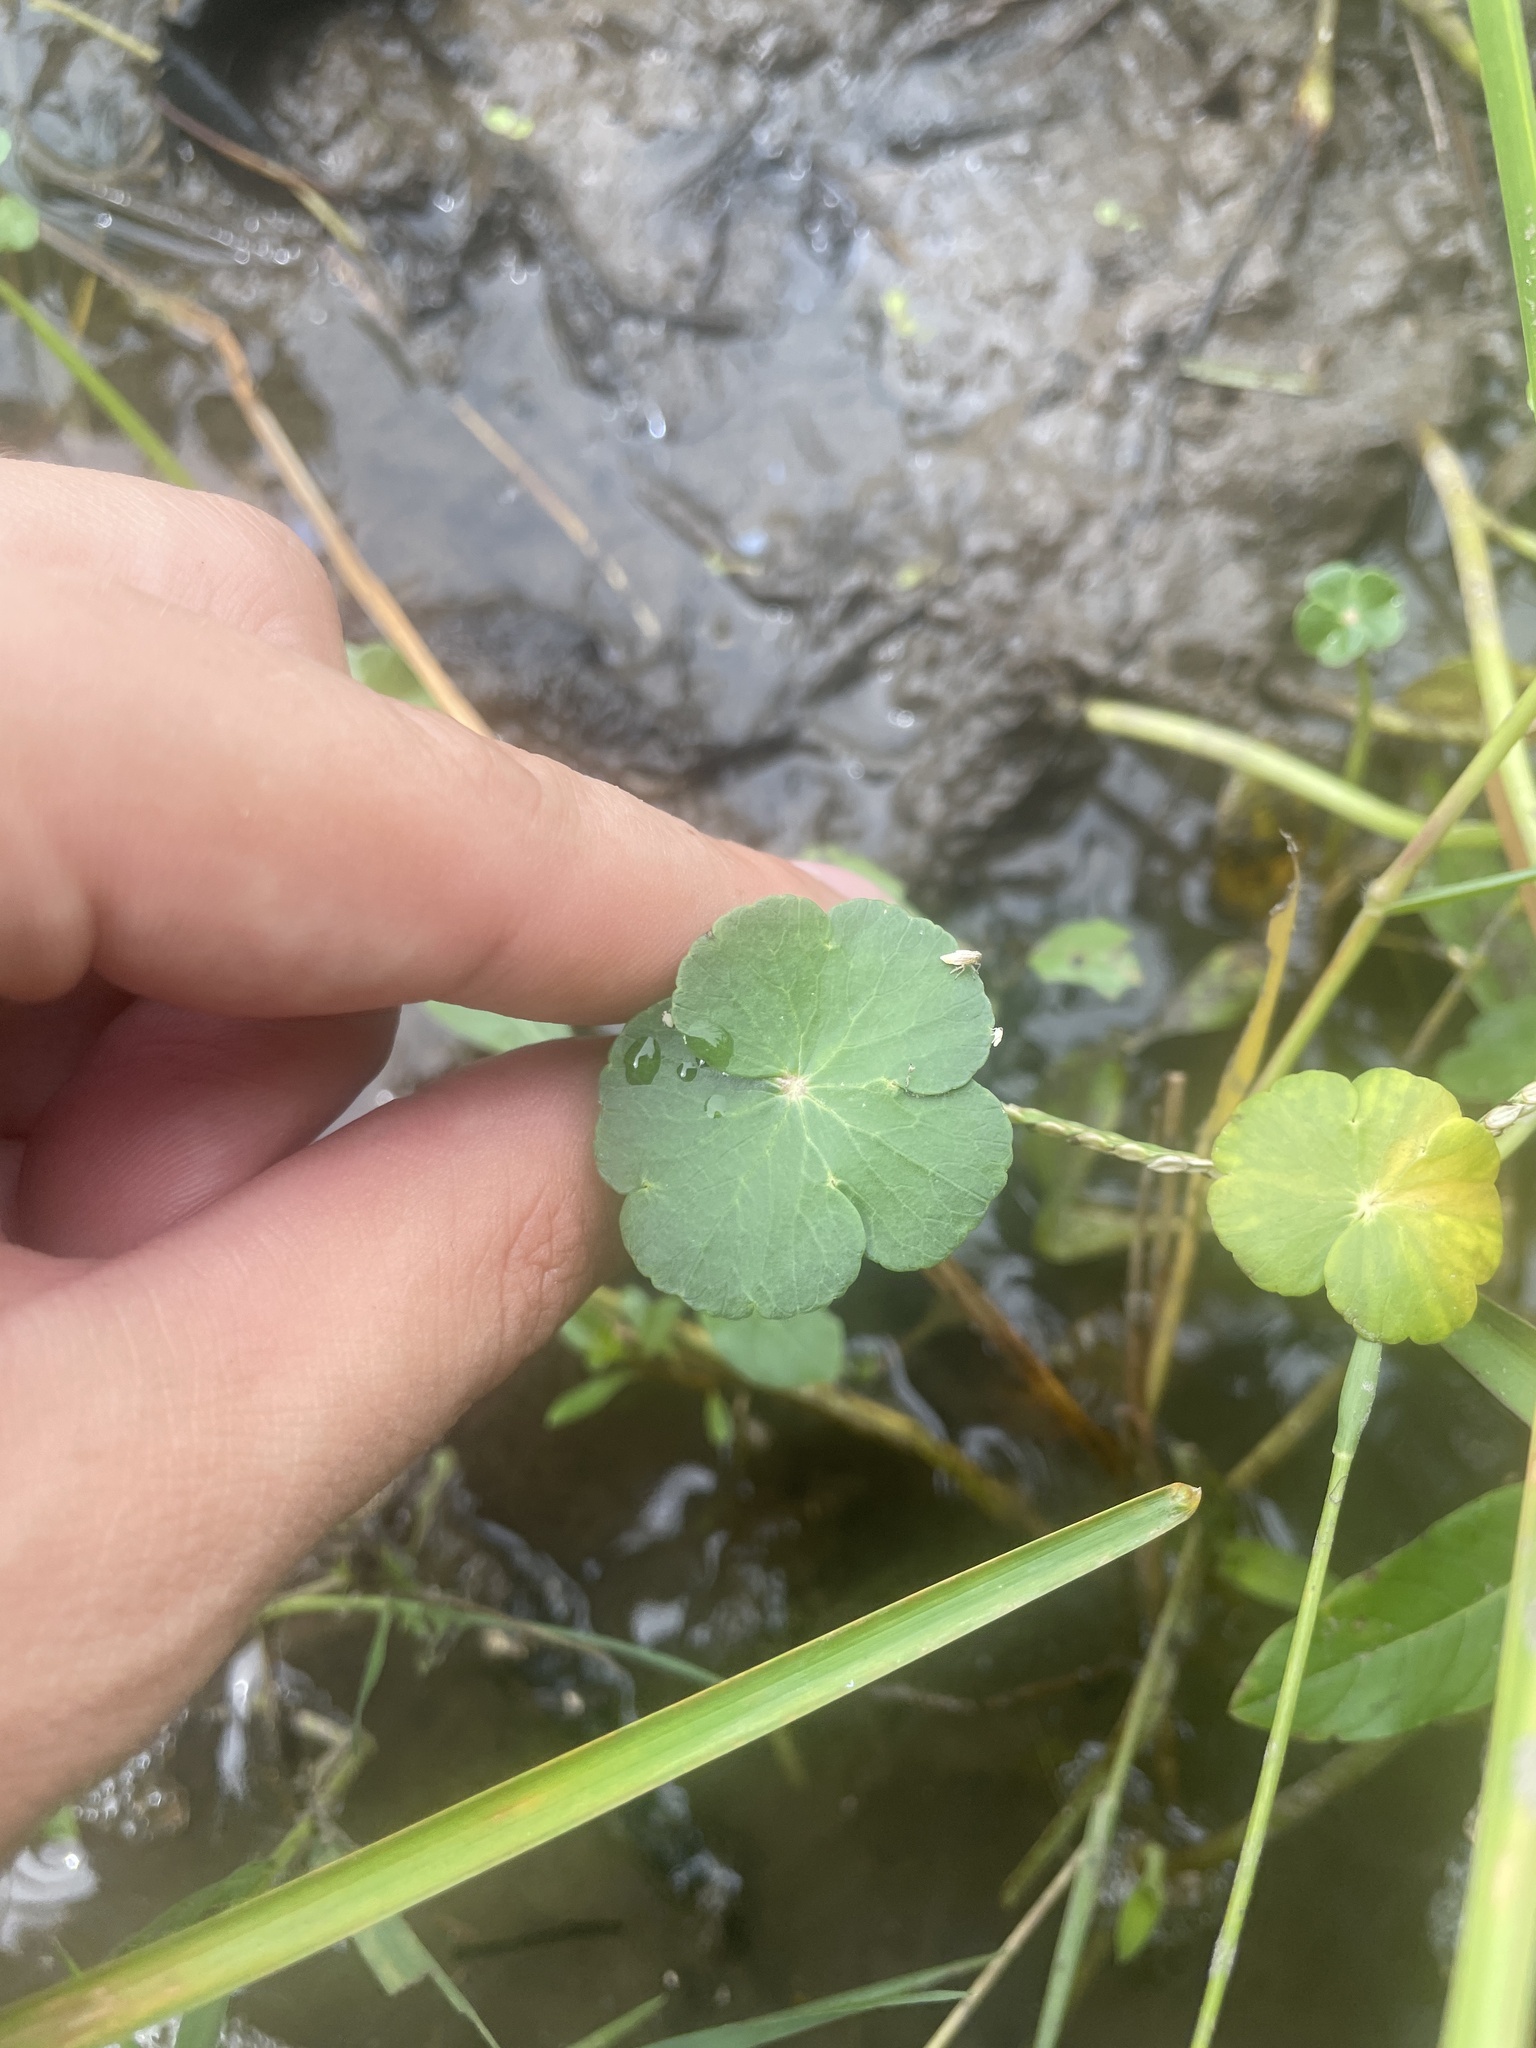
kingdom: Plantae
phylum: Tracheophyta
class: Magnoliopsida
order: Apiales
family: Araliaceae
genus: Hydrocotyle
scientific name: Hydrocotyle ranunculoides
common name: Floating pennywort
